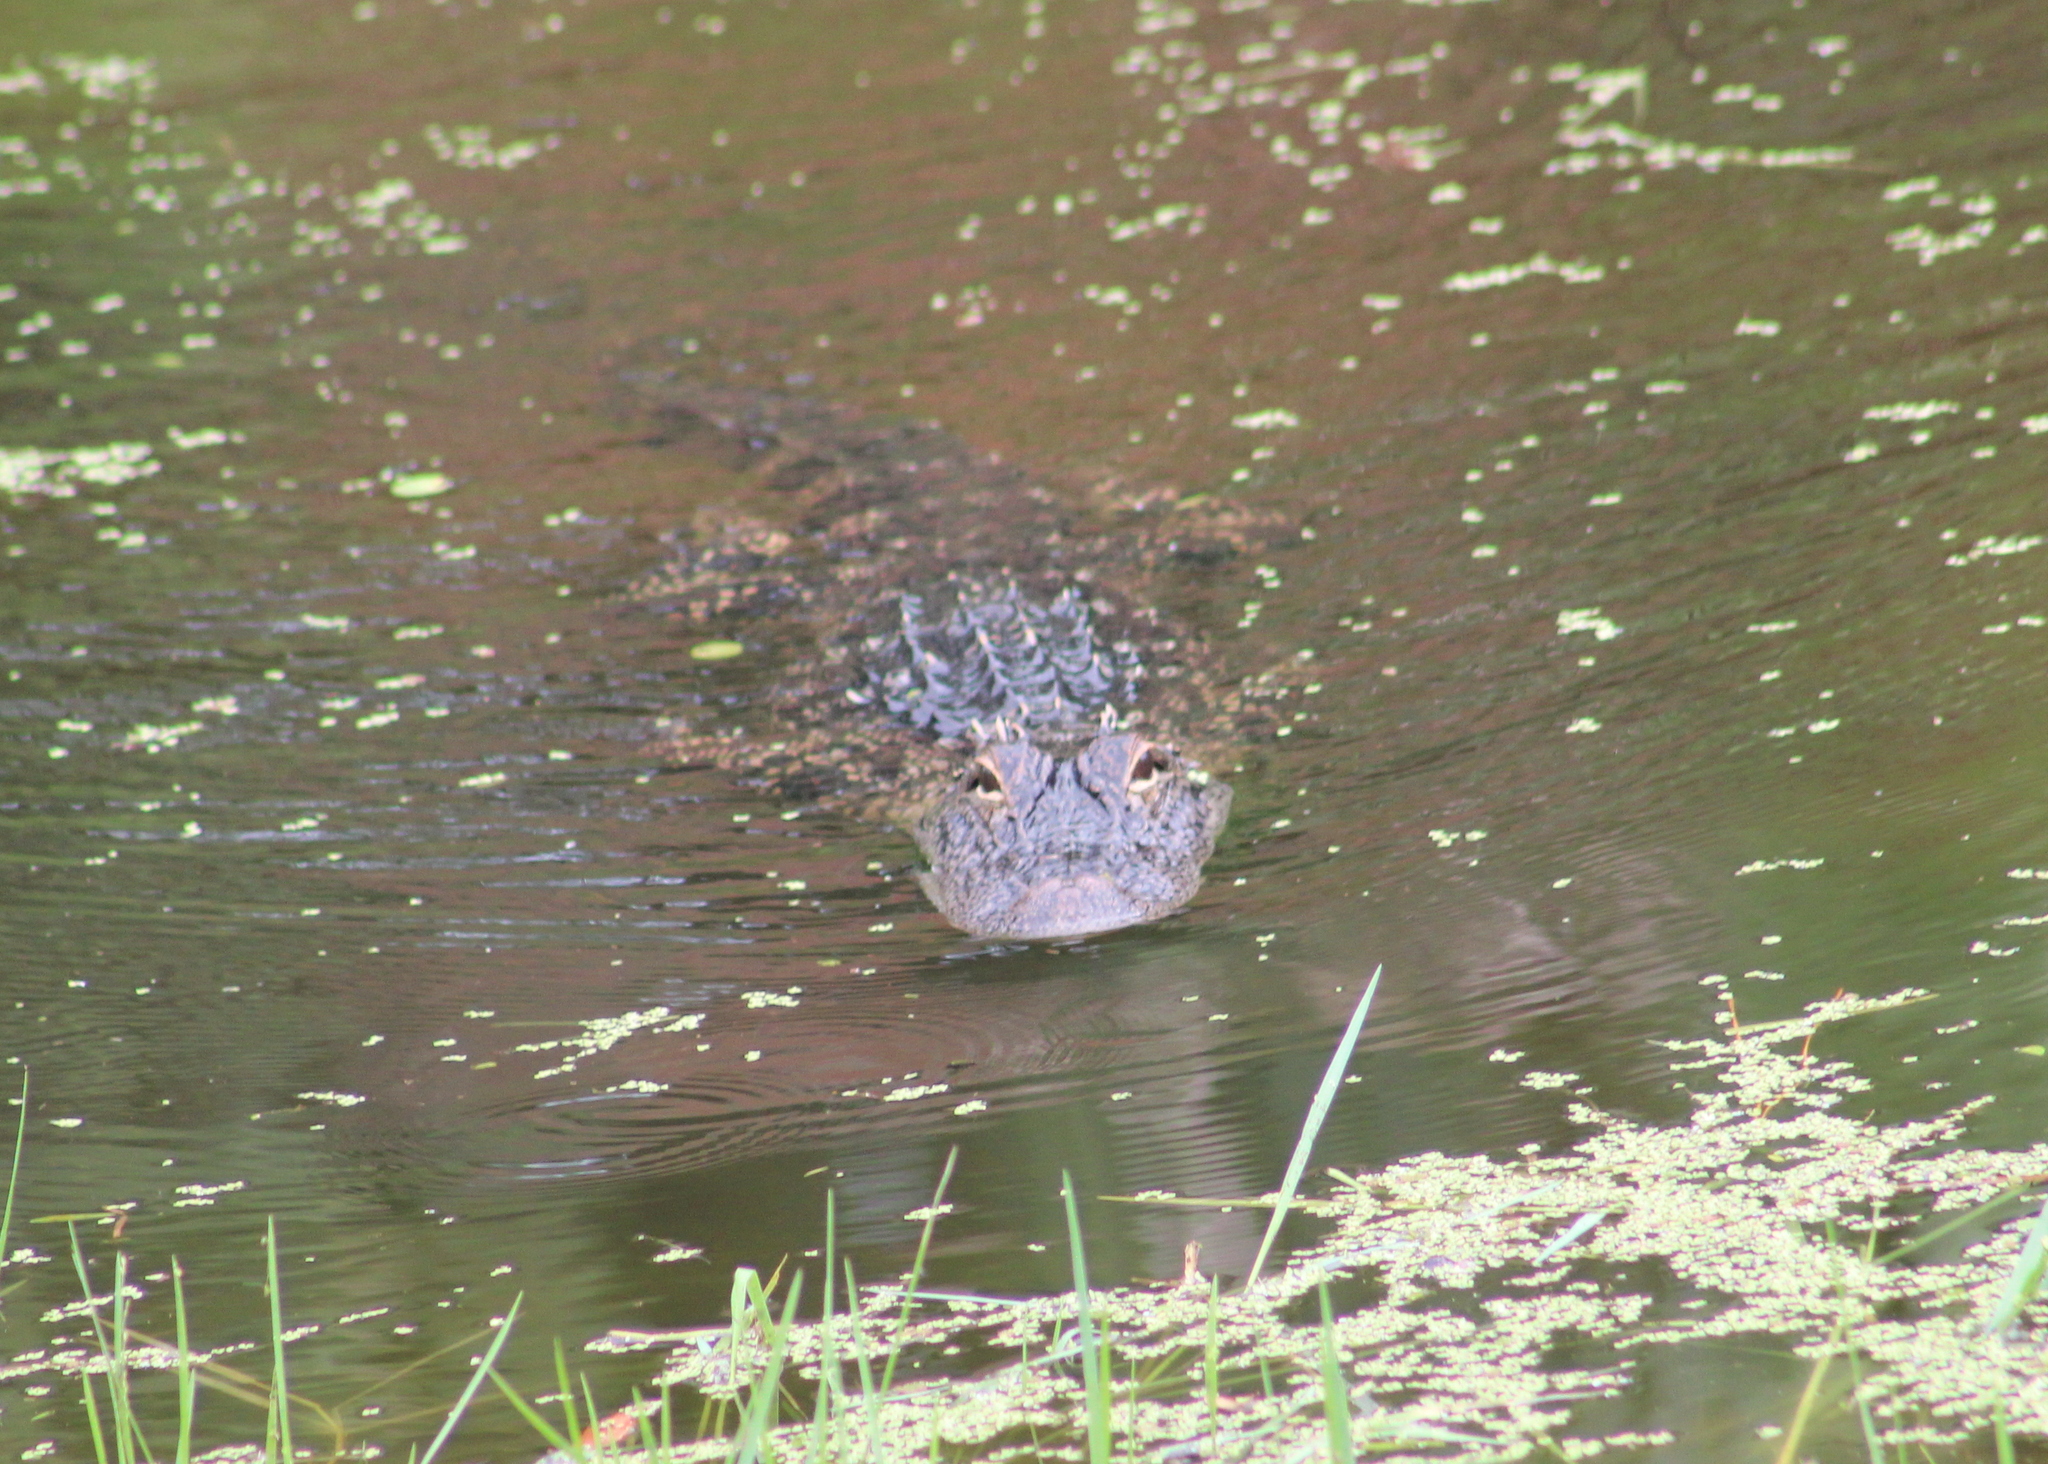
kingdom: Animalia
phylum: Chordata
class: Crocodylia
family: Alligatoridae
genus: Alligator
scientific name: Alligator mississippiensis
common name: American alligator
